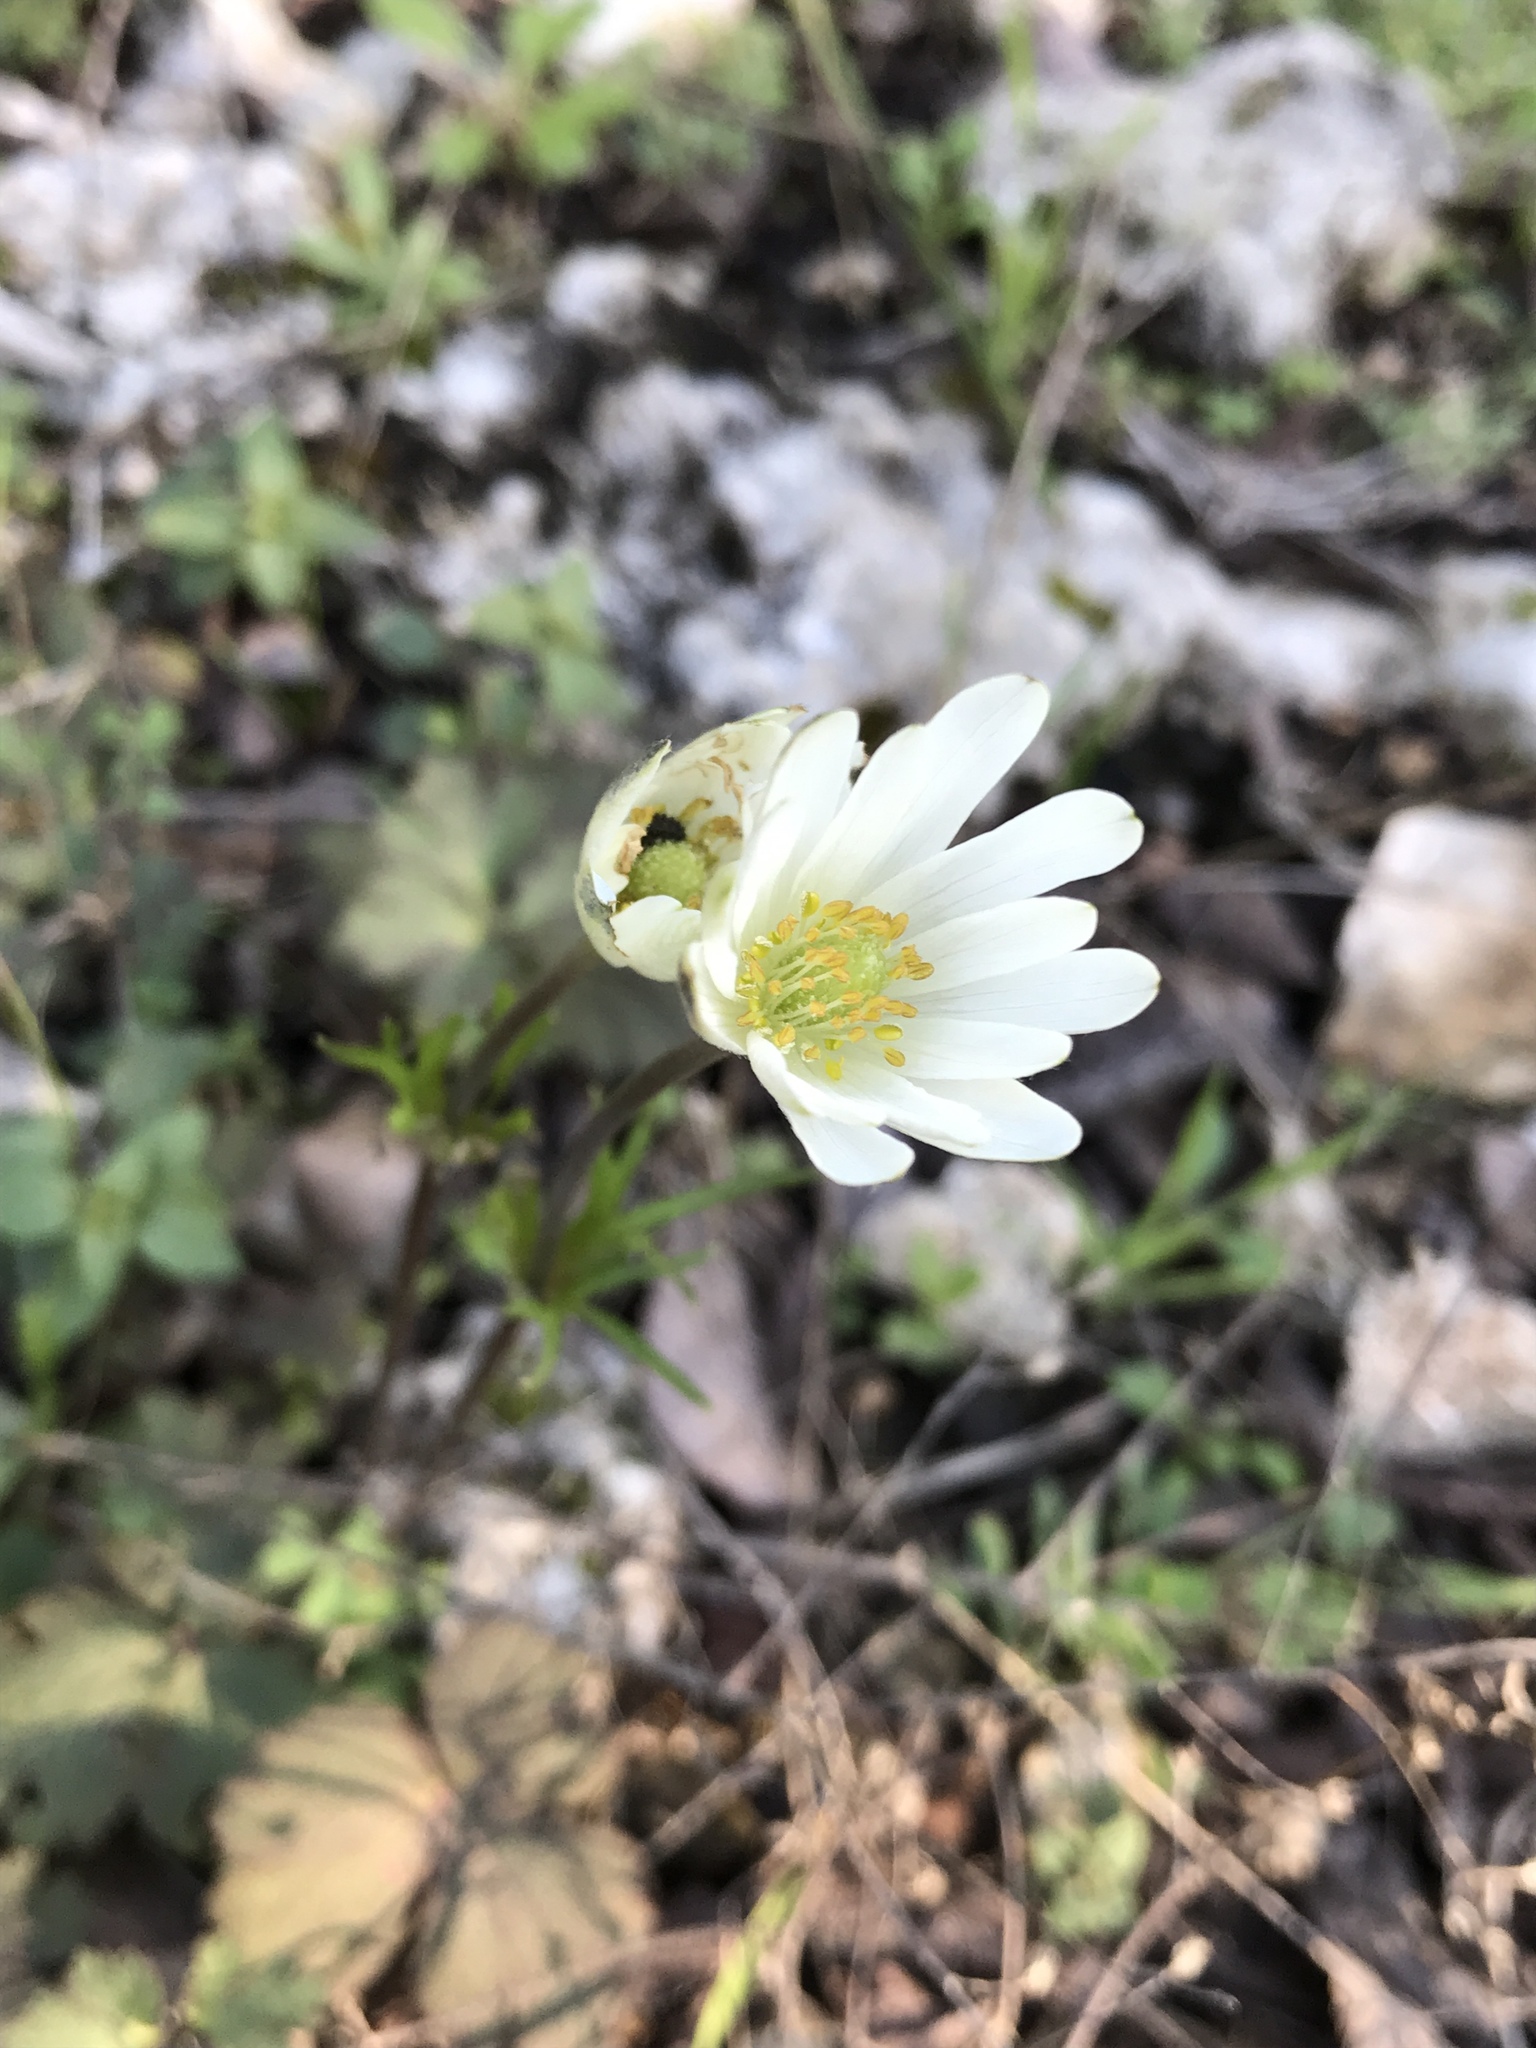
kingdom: Plantae
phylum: Tracheophyta
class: Magnoliopsida
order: Ranunculales
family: Ranunculaceae
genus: Anemone
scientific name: Anemone berlandieri
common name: Ten-petal anemone
